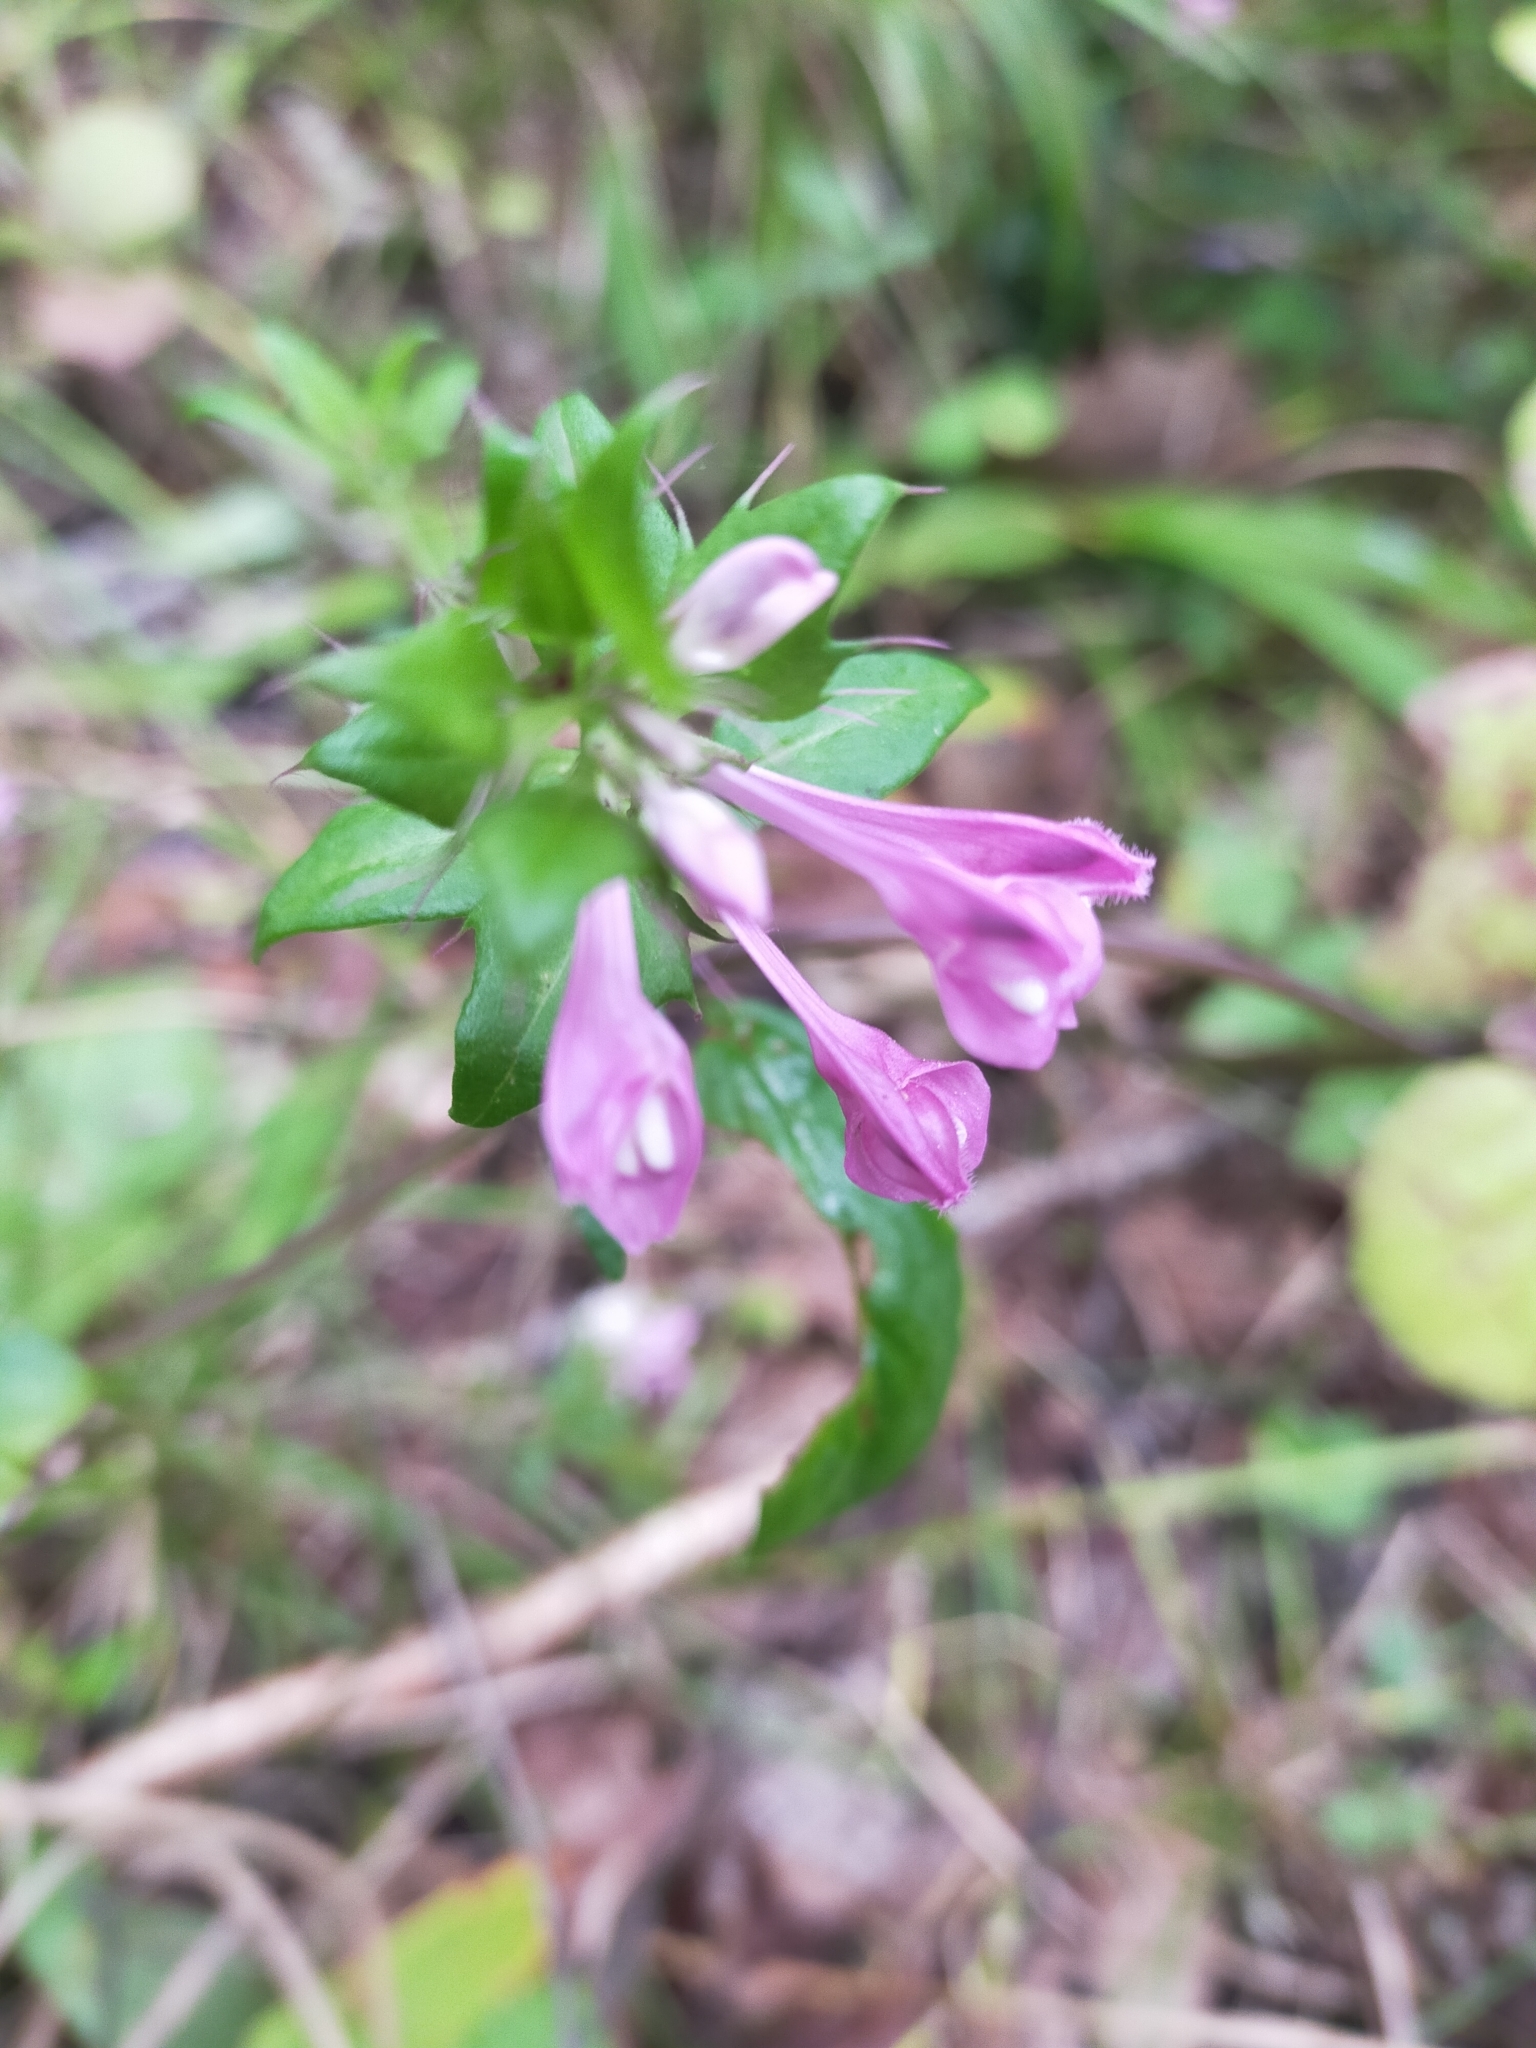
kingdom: Plantae
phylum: Tracheophyta
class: Magnoliopsida
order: Lamiales
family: Orobanchaceae
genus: Melampyrum
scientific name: Melampyrum roseum
